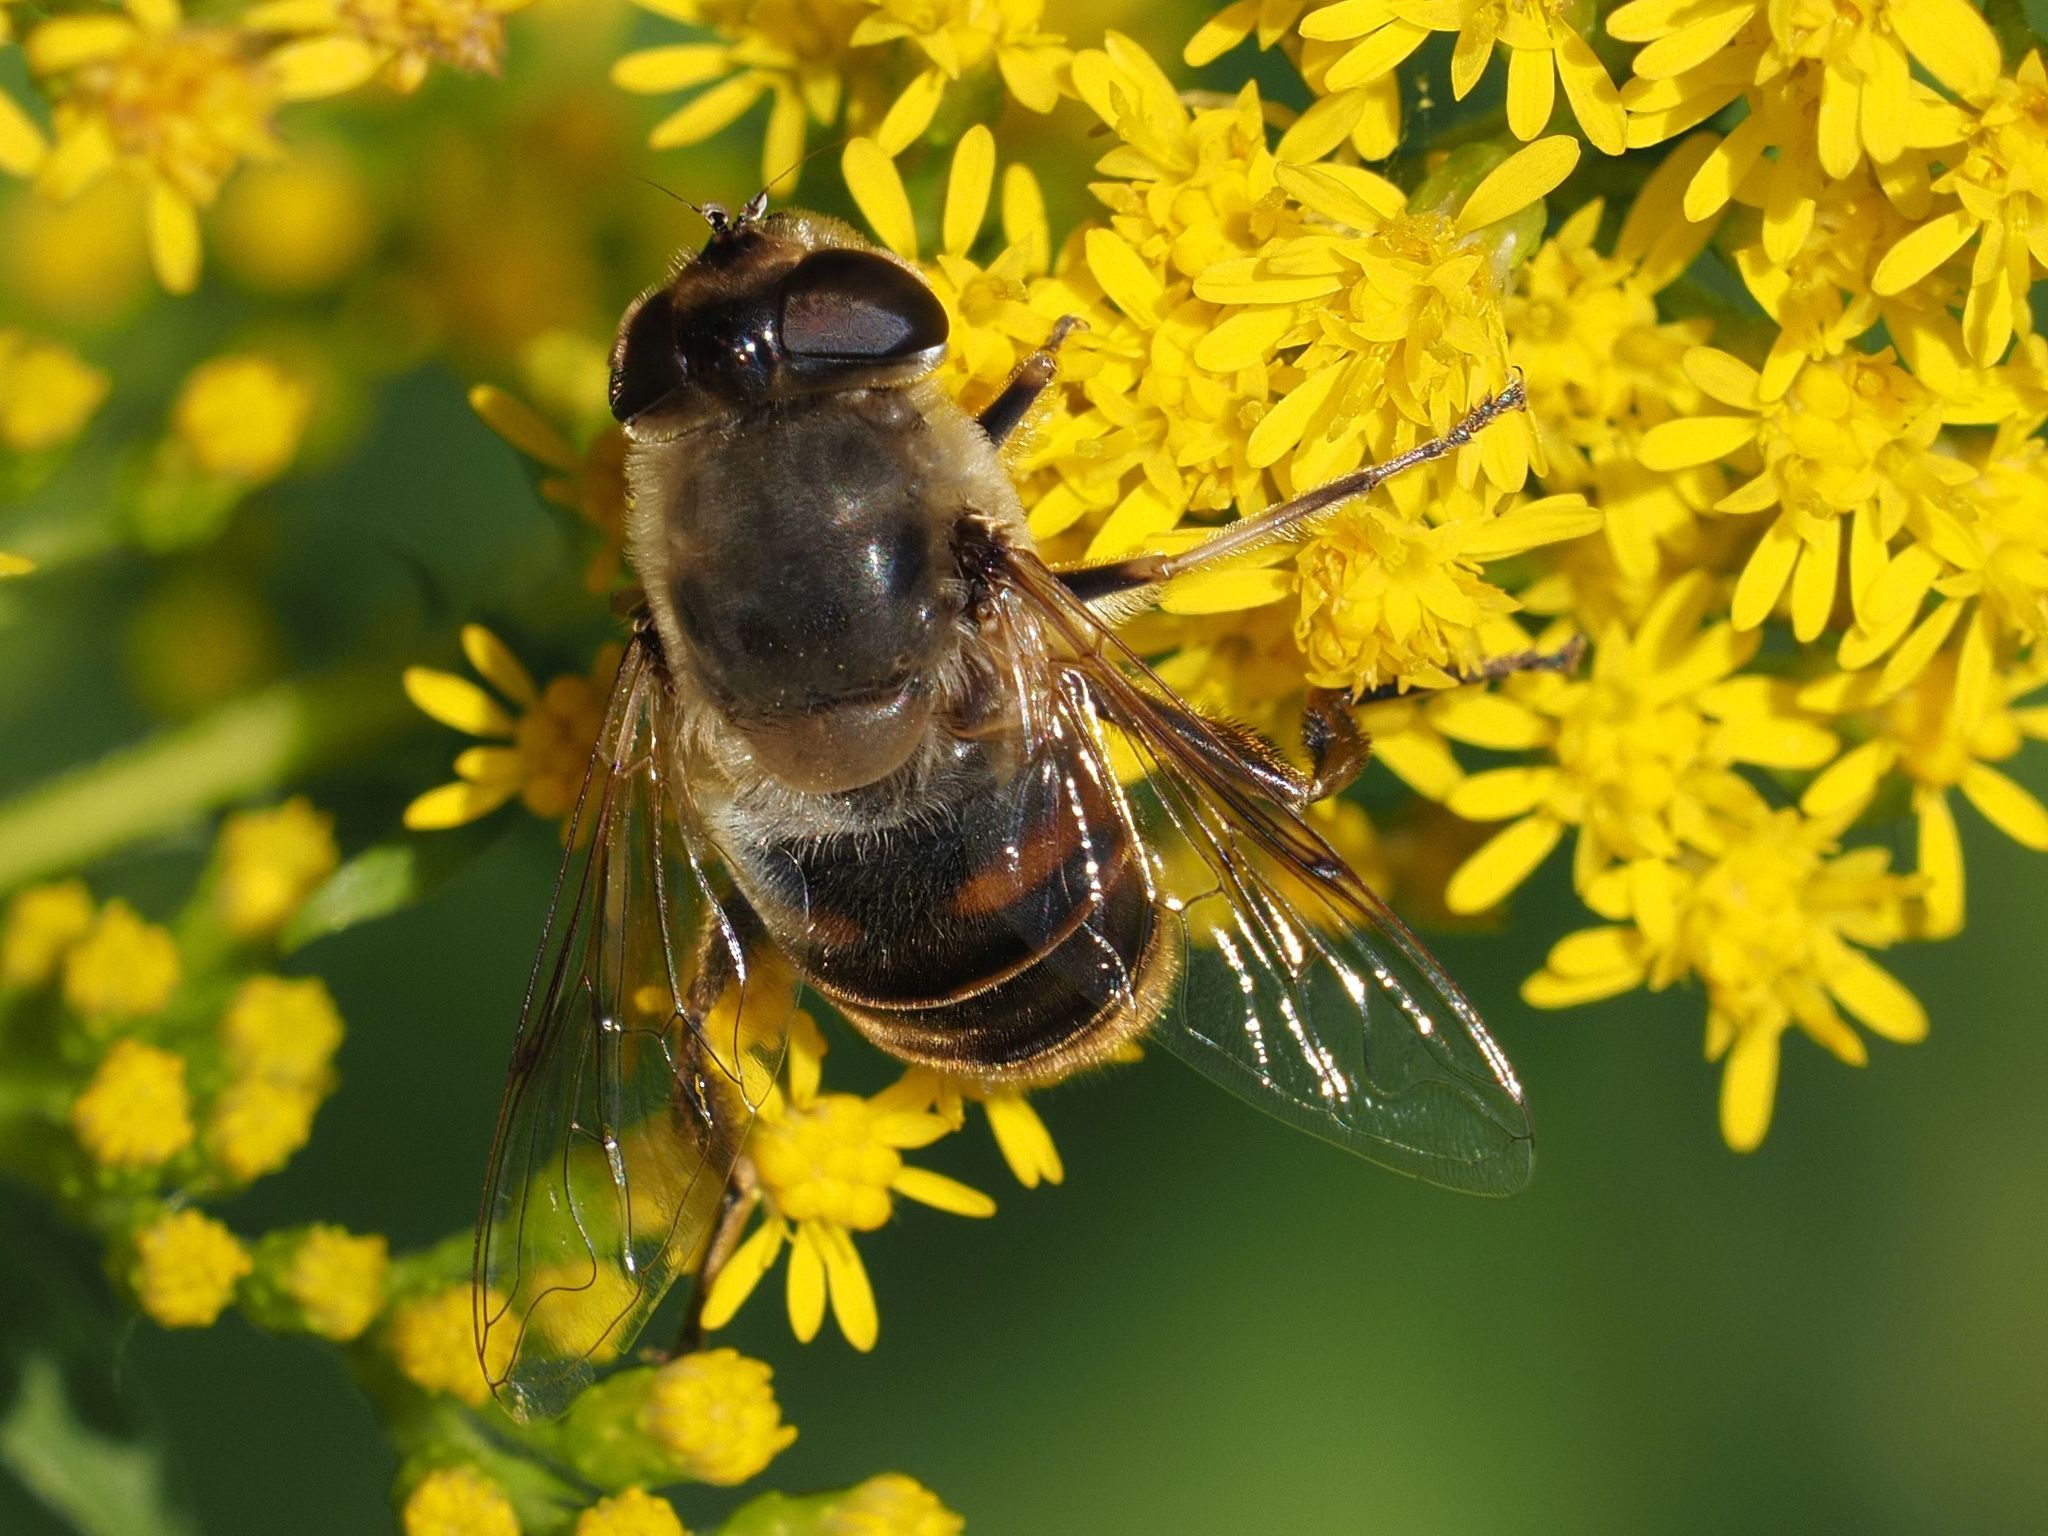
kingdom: Animalia
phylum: Arthropoda
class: Insecta
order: Diptera
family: Syrphidae
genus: Eristalis
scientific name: Eristalis tenax
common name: Drone fly
